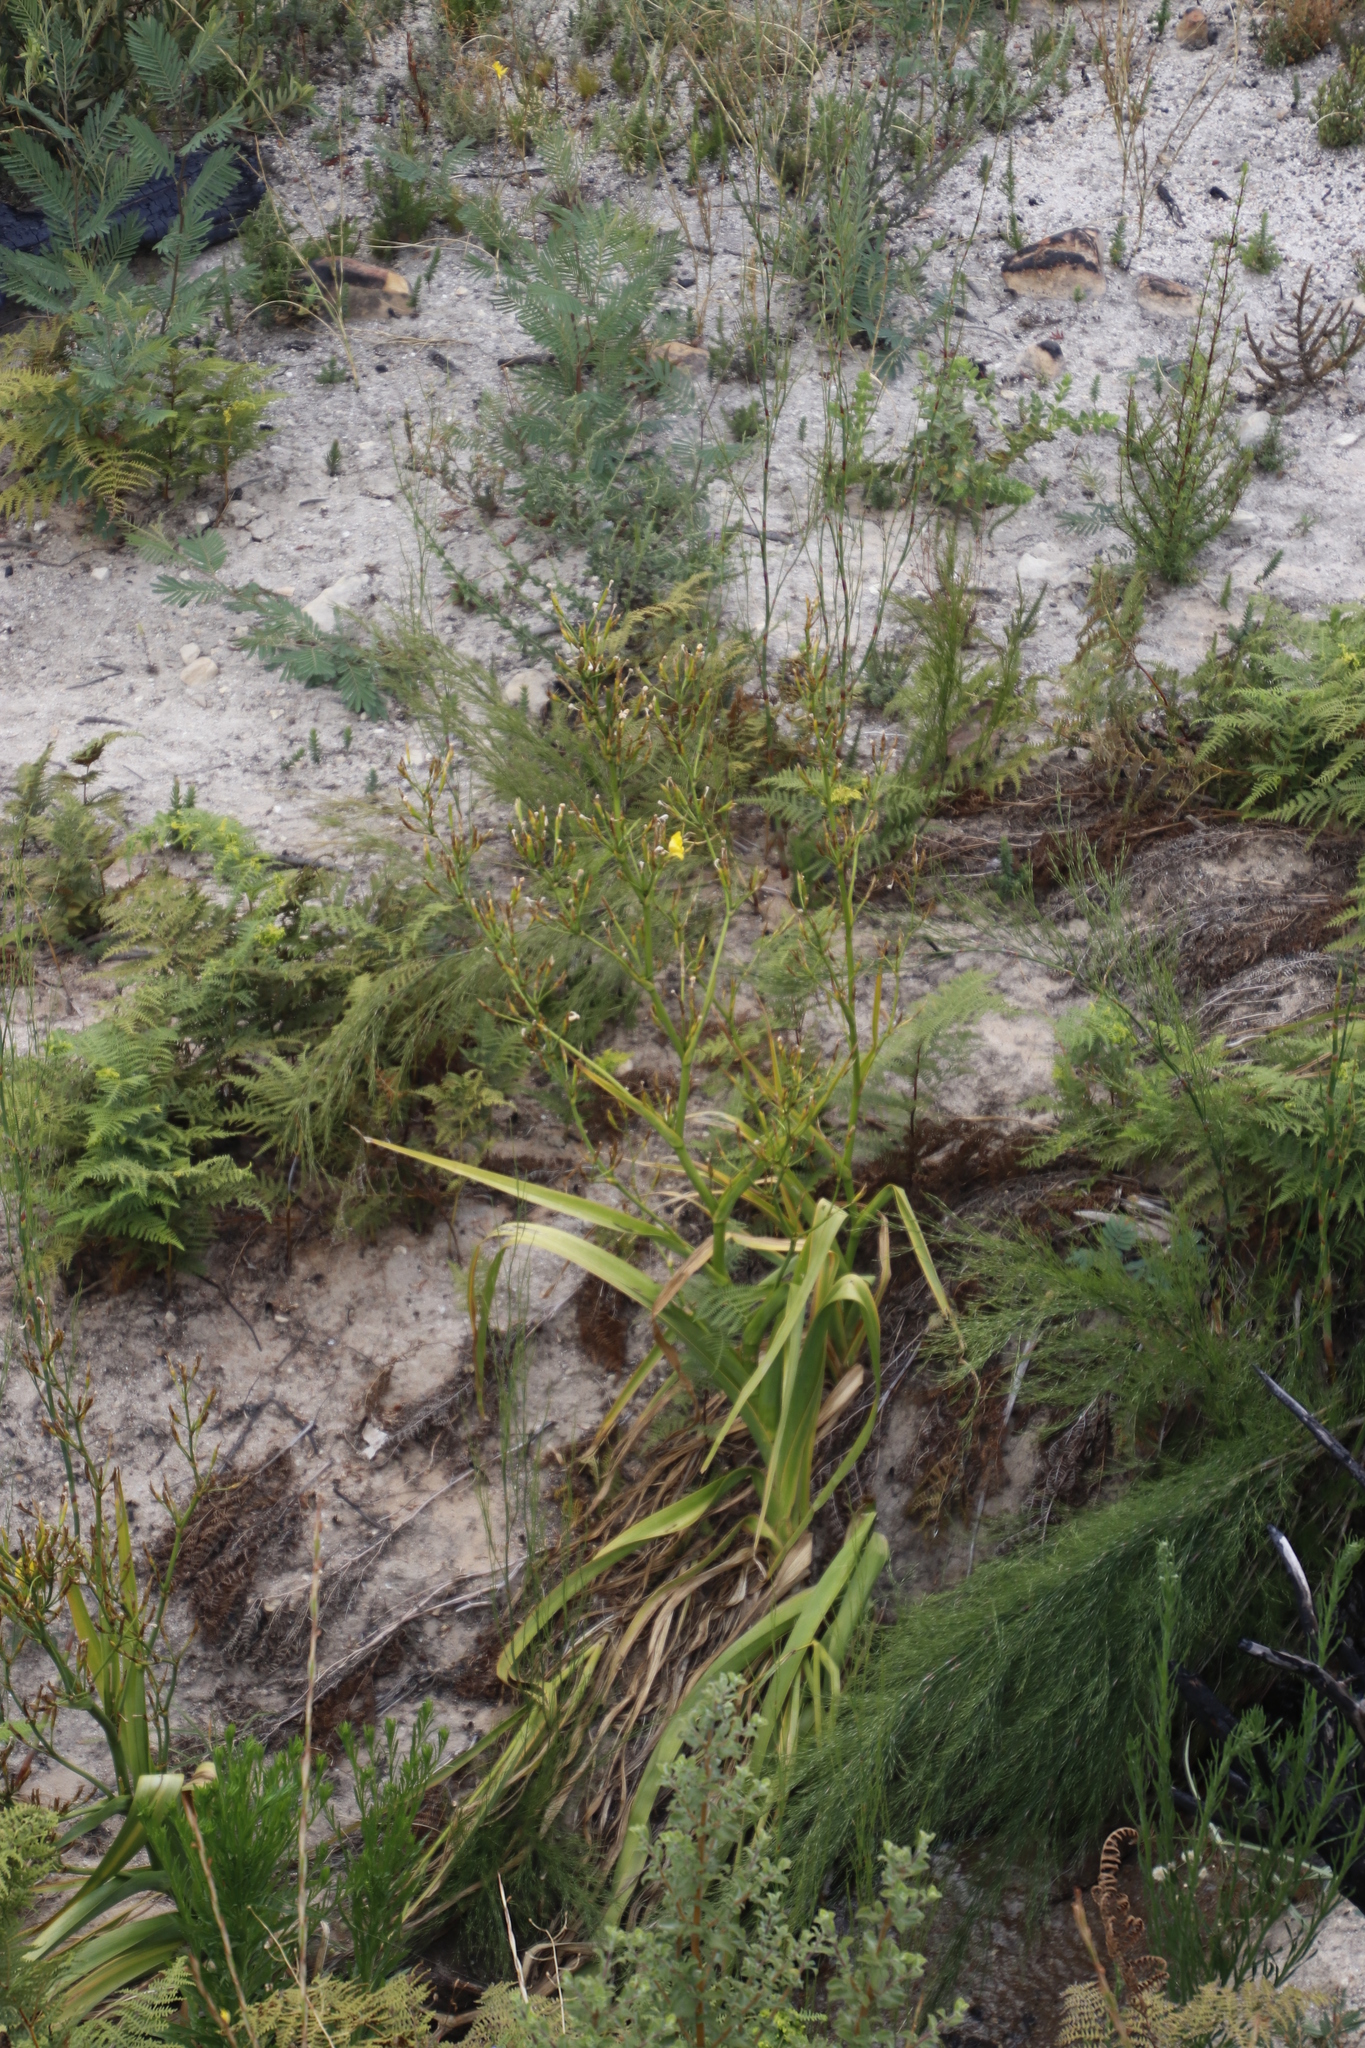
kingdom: Plantae
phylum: Tracheophyta
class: Liliopsida
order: Asparagales
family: Iridaceae
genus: Moraea
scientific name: Moraea ramosissima
